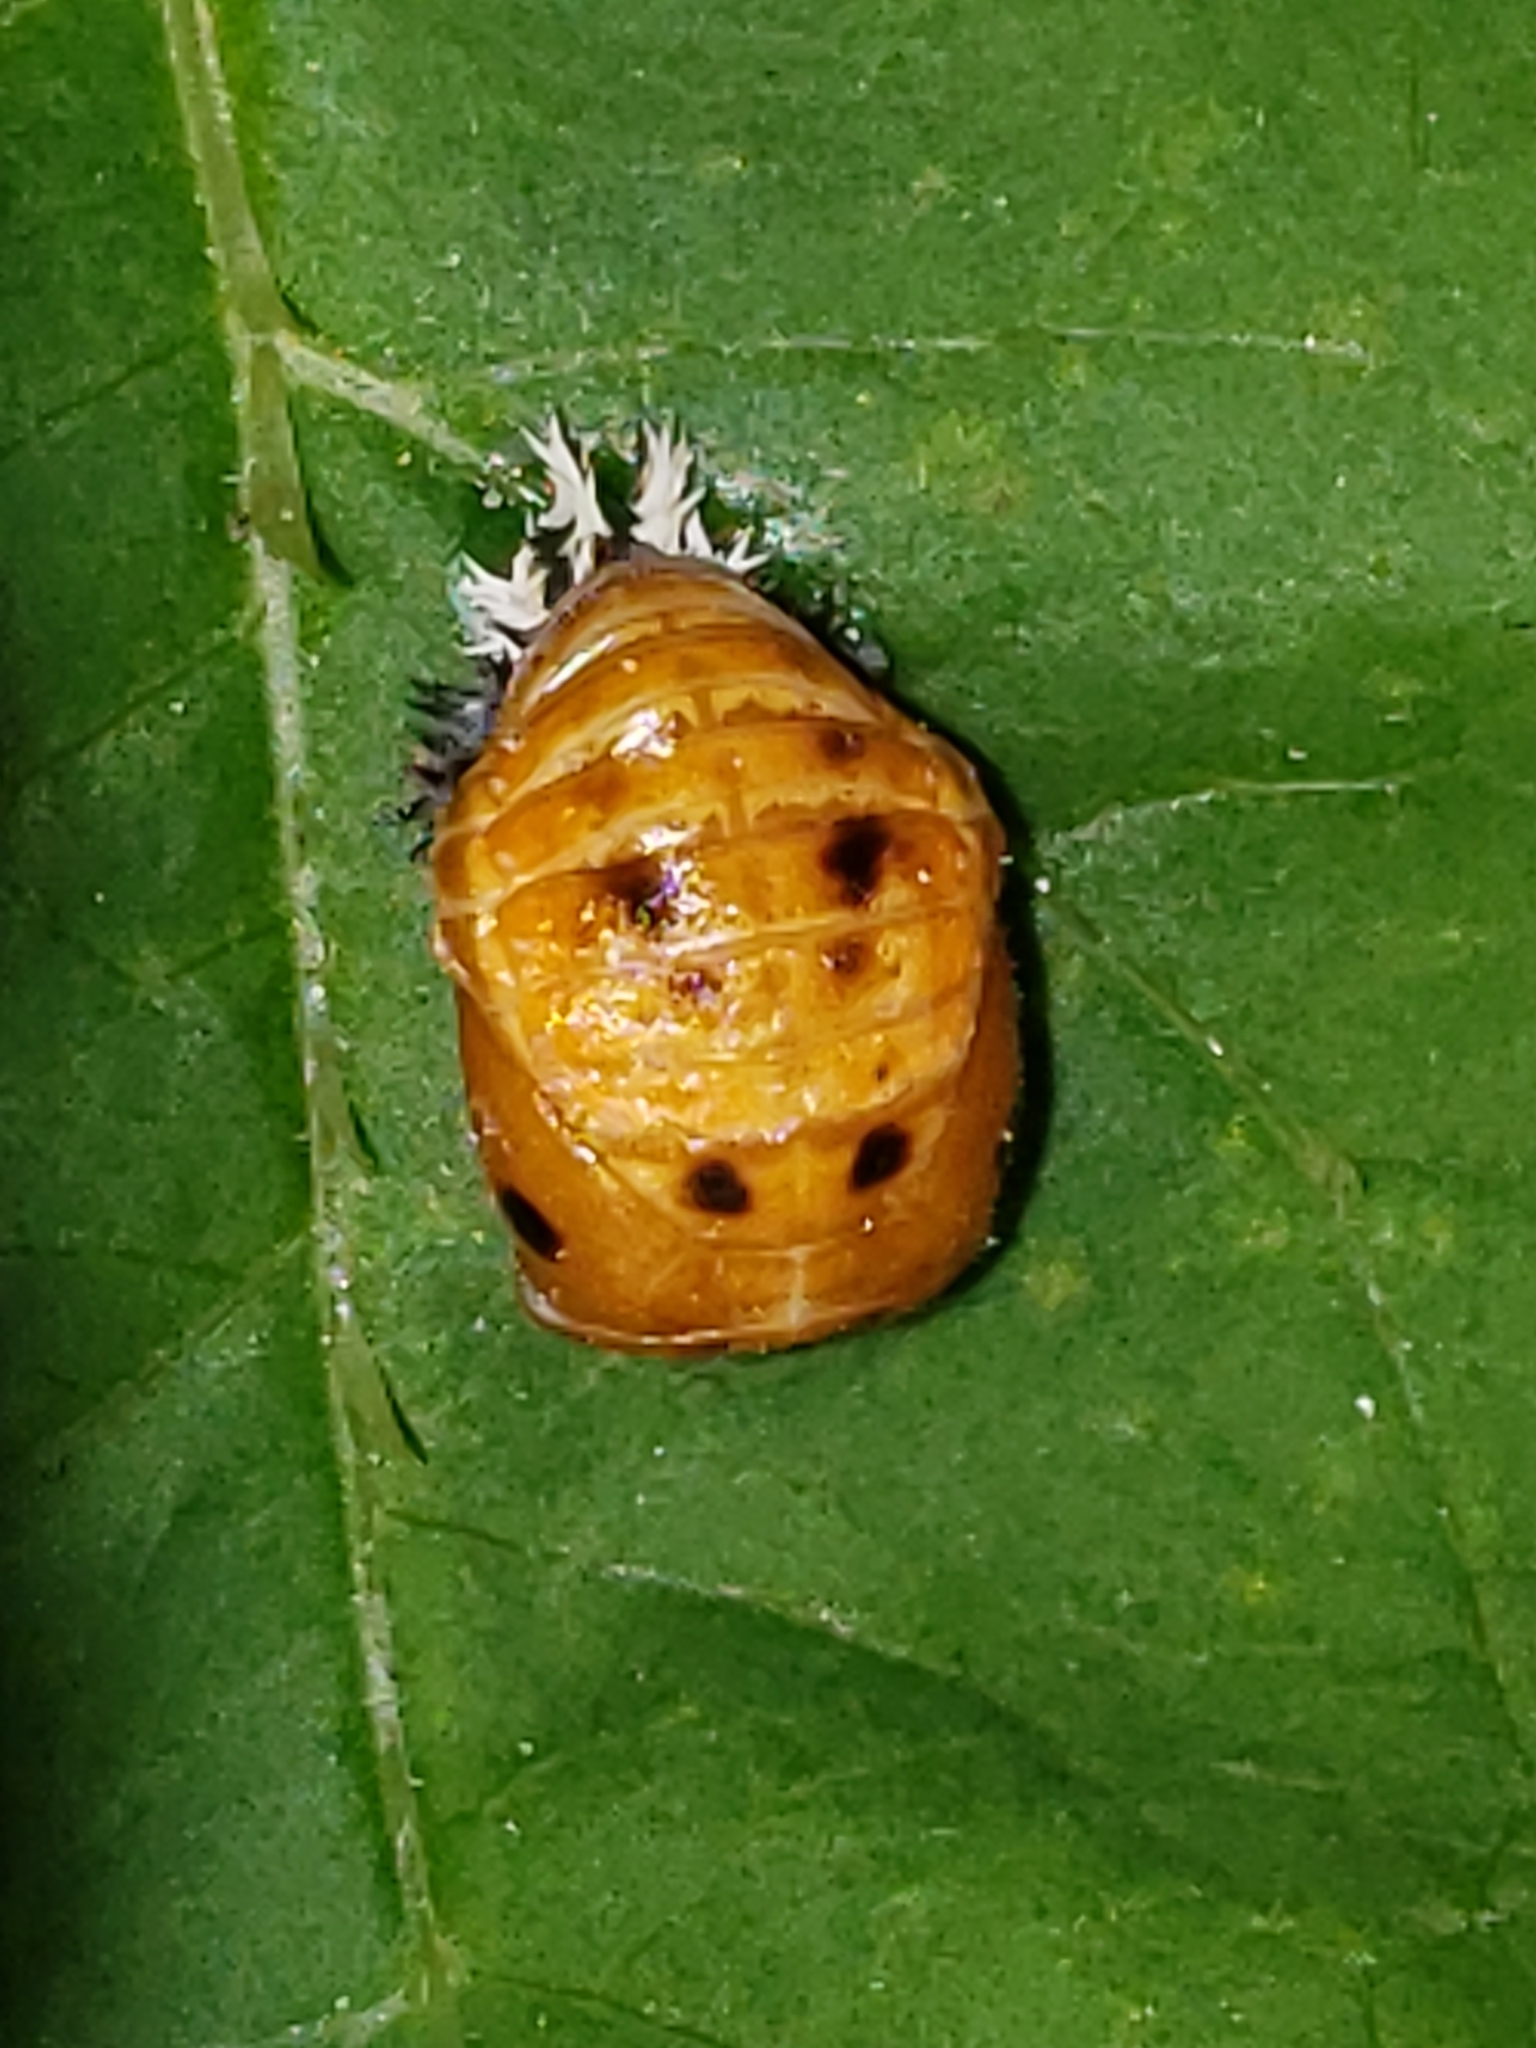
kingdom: Animalia
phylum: Arthropoda
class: Insecta
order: Coleoptera
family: Coccinellidae
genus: Harmonia
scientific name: Harmonia axyridis
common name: Harlequin ladybird
